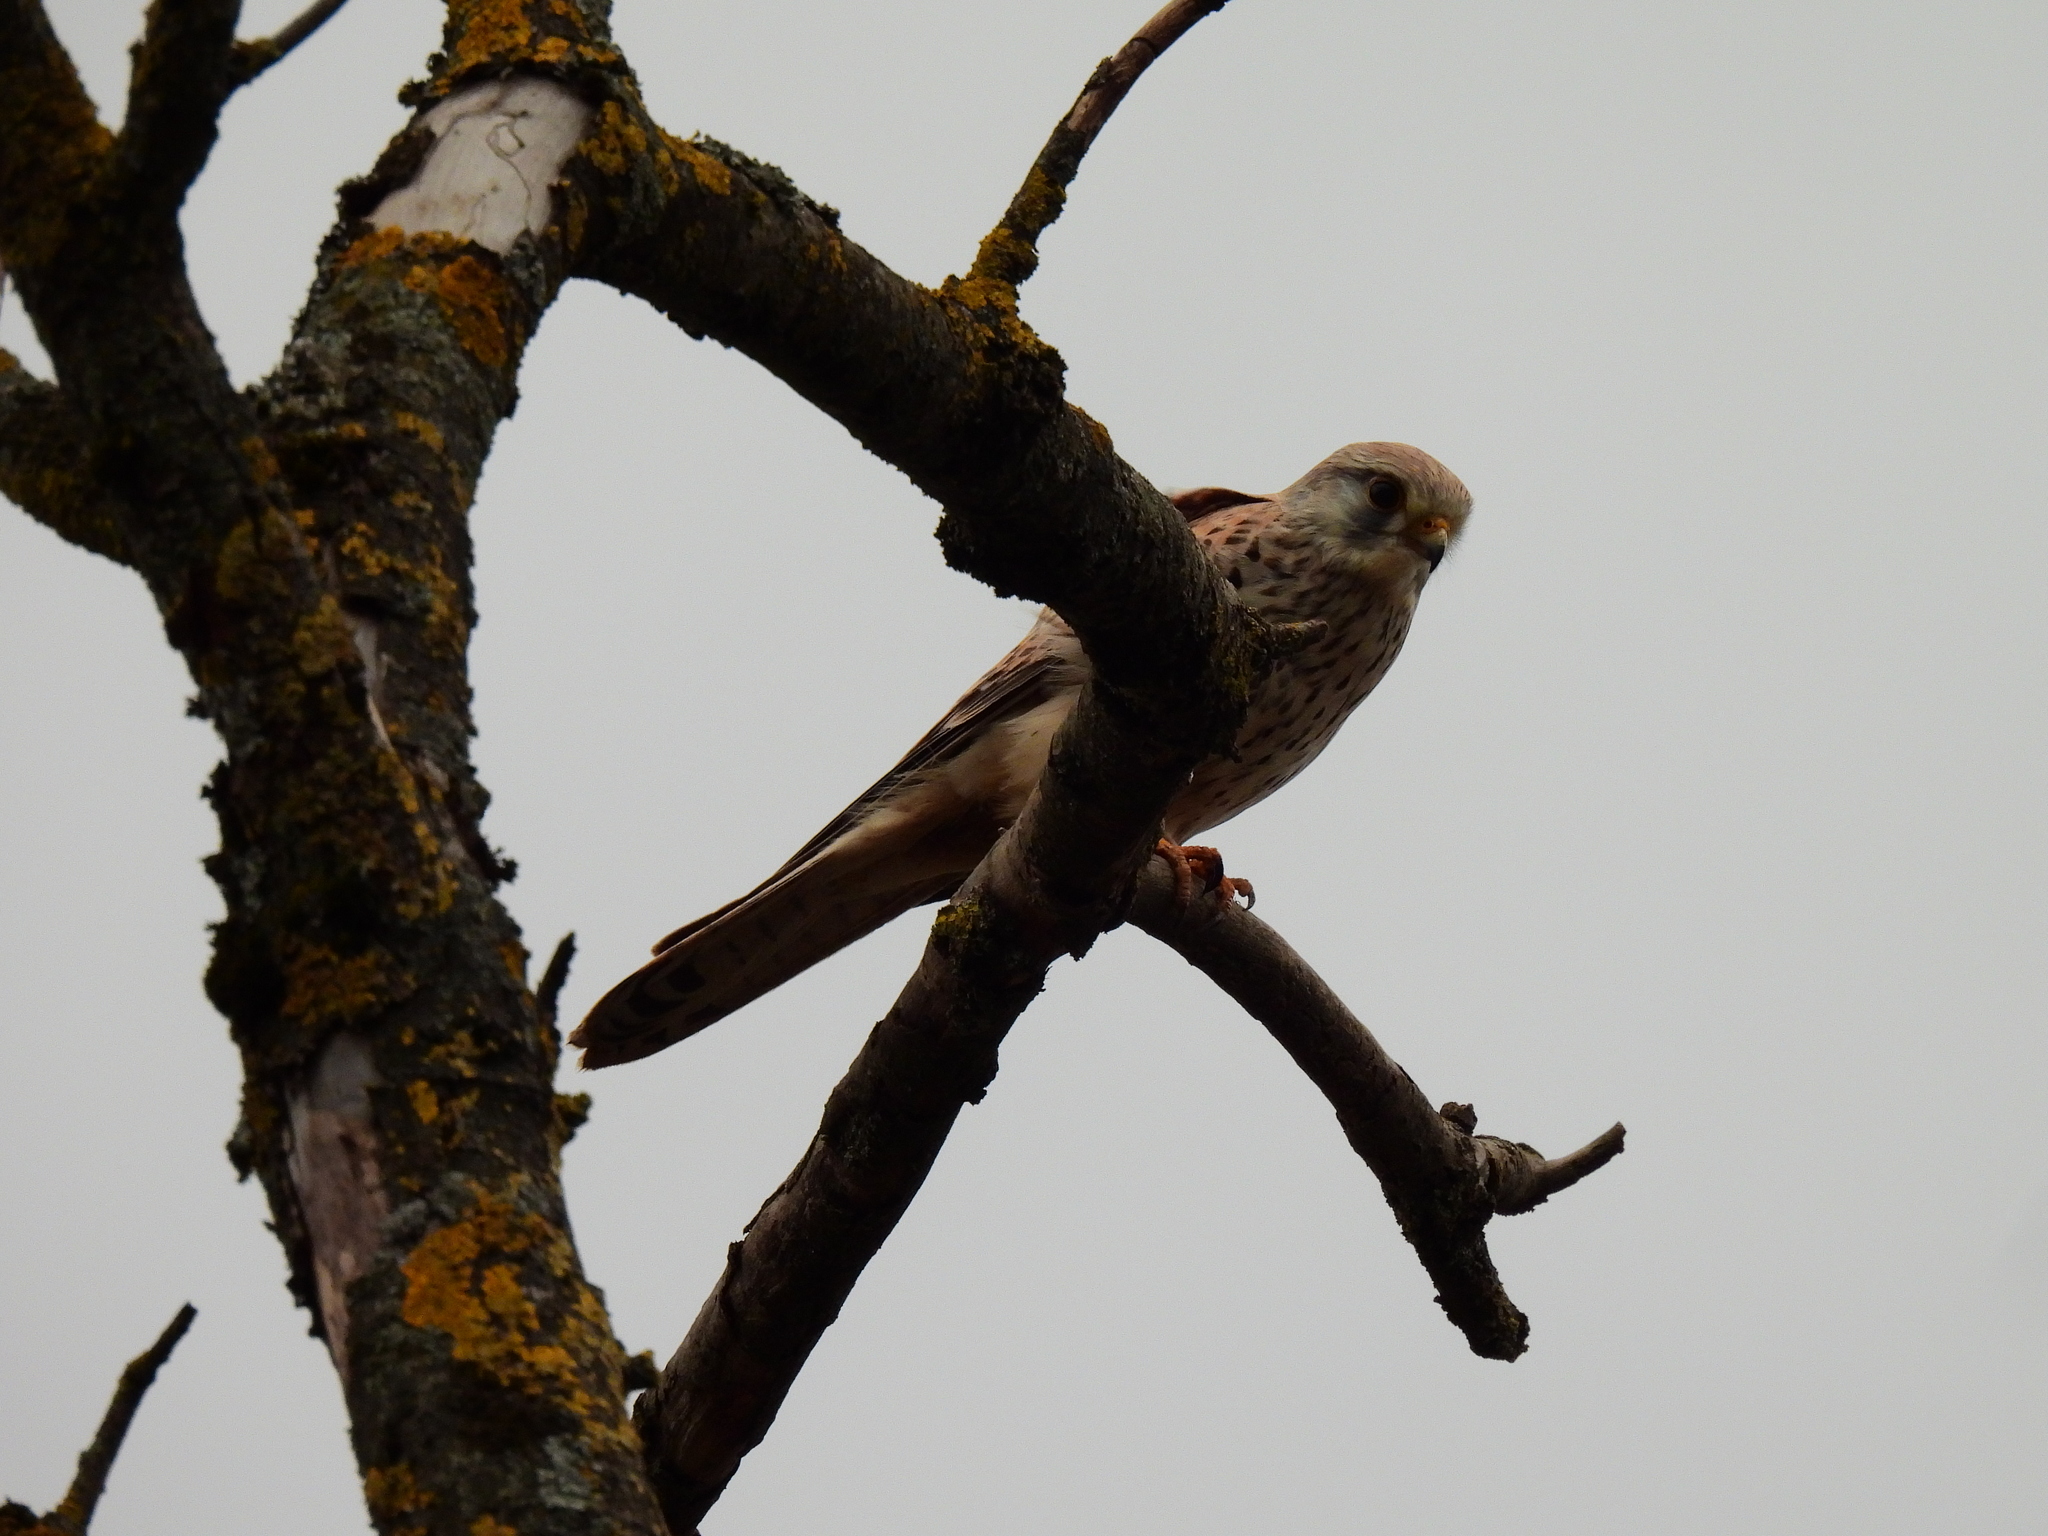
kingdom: Animalia
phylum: Chordata
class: Aves
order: Falconiformes
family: Falconidae
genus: Falco
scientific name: Falco tinnunculus
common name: Common kestrel
